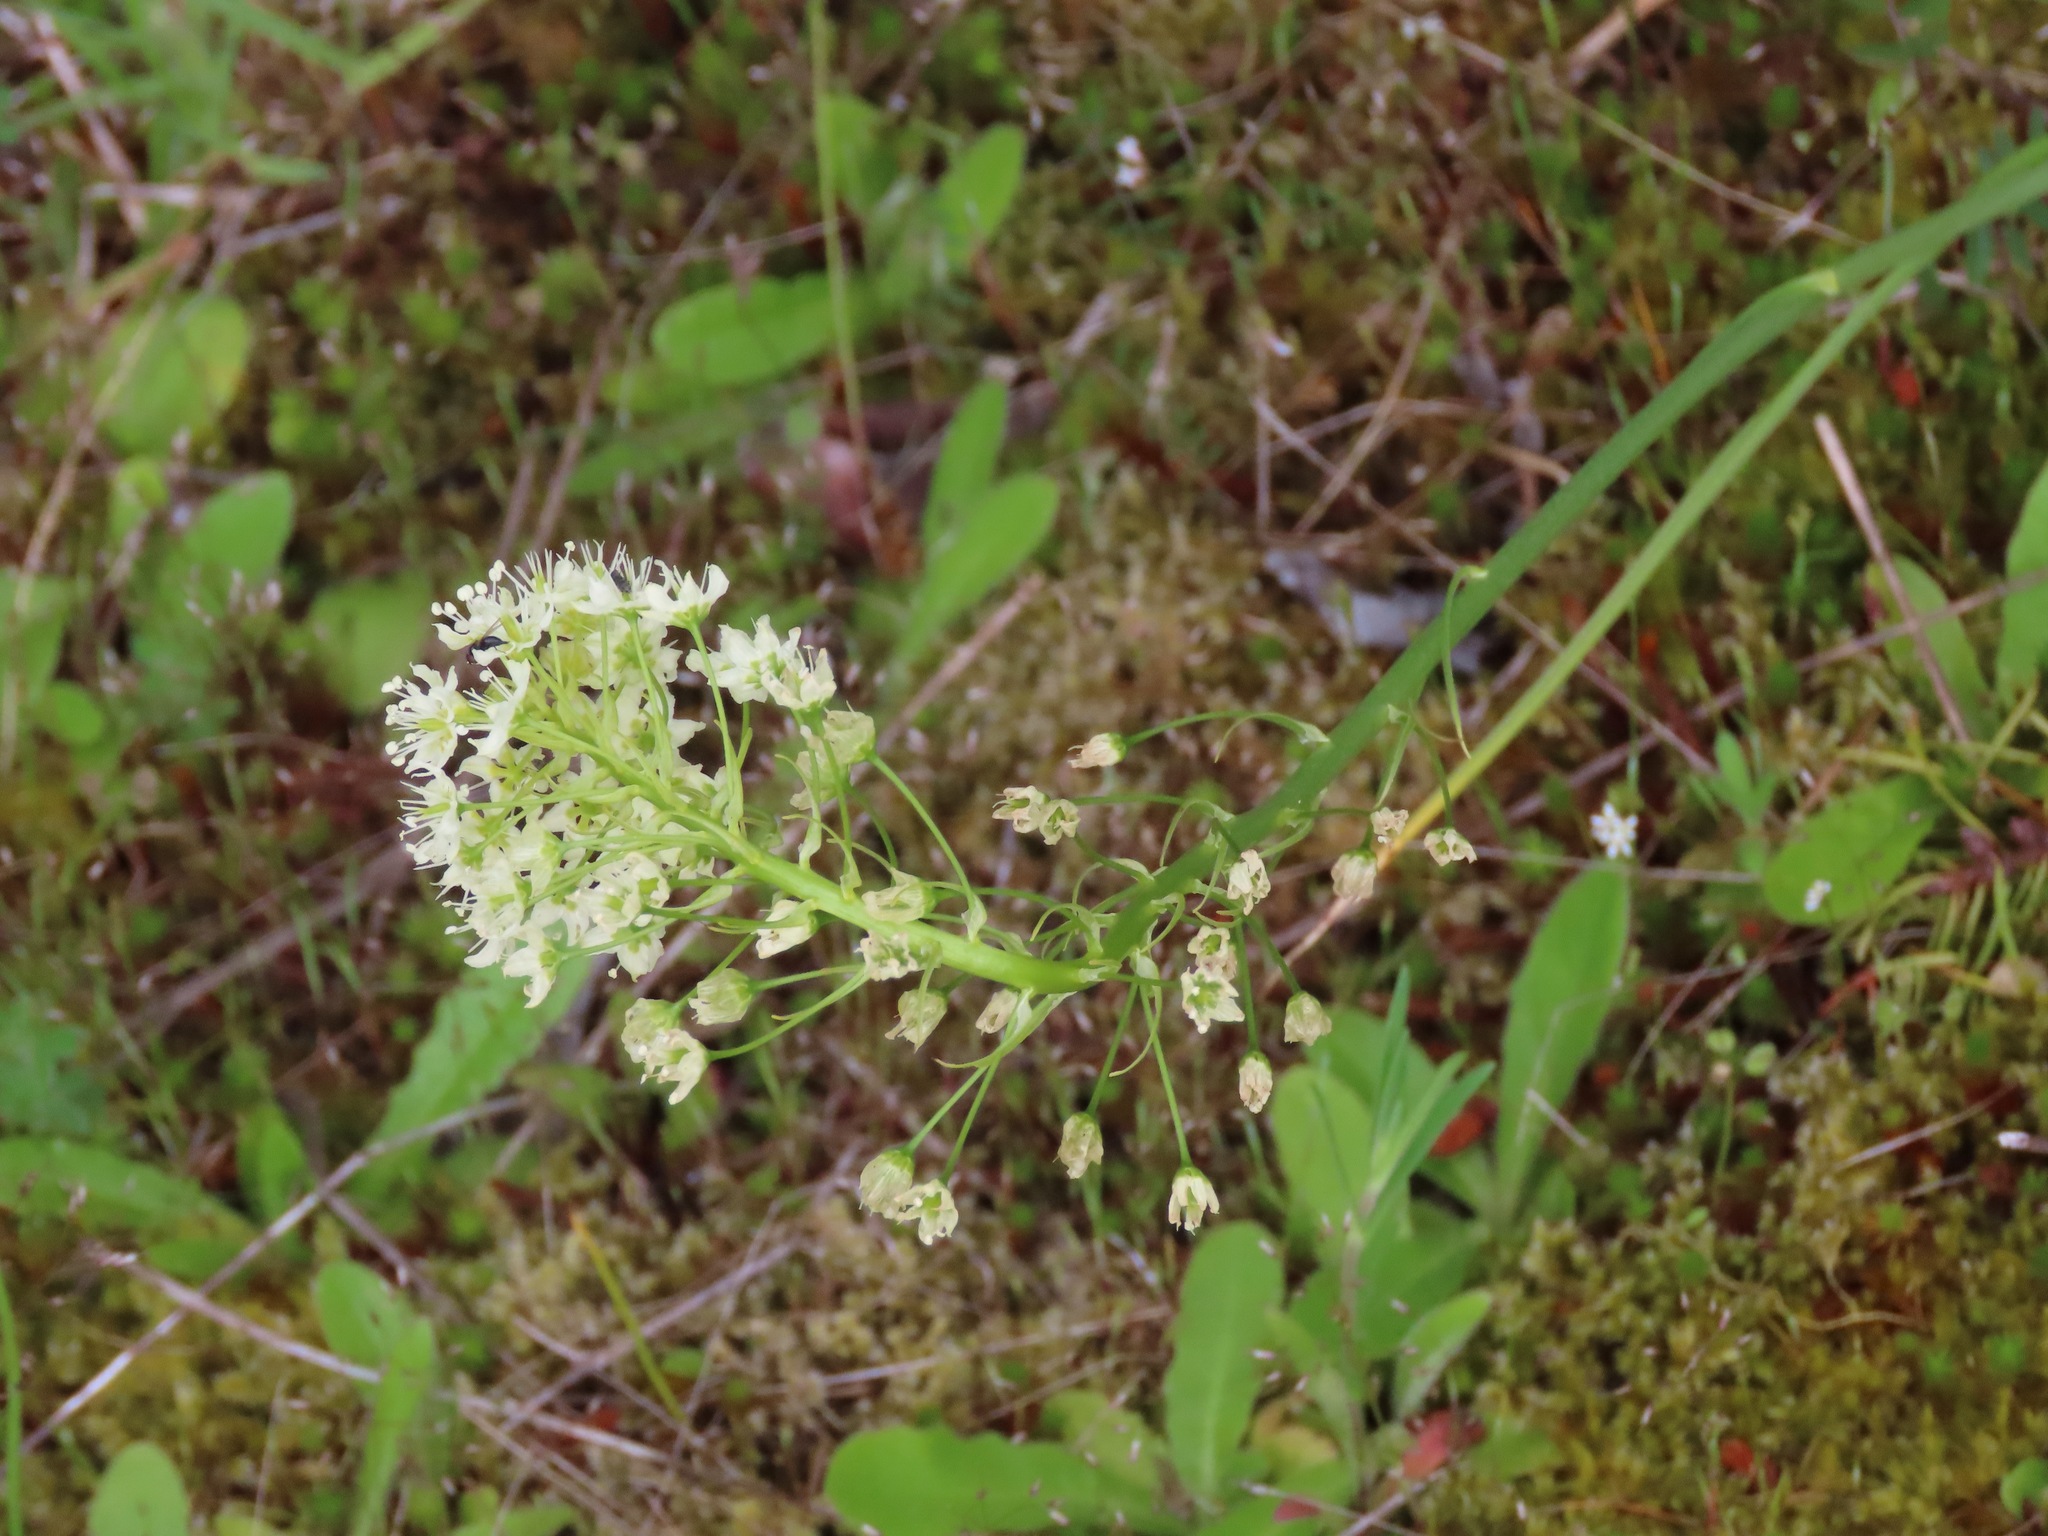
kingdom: Plantae
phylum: Tracheophyta
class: Liliopsida
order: Liliales
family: Melanthiaceae
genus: Toxicoscordion
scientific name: Toxicoscordion venenosum
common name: Meadow death camas
